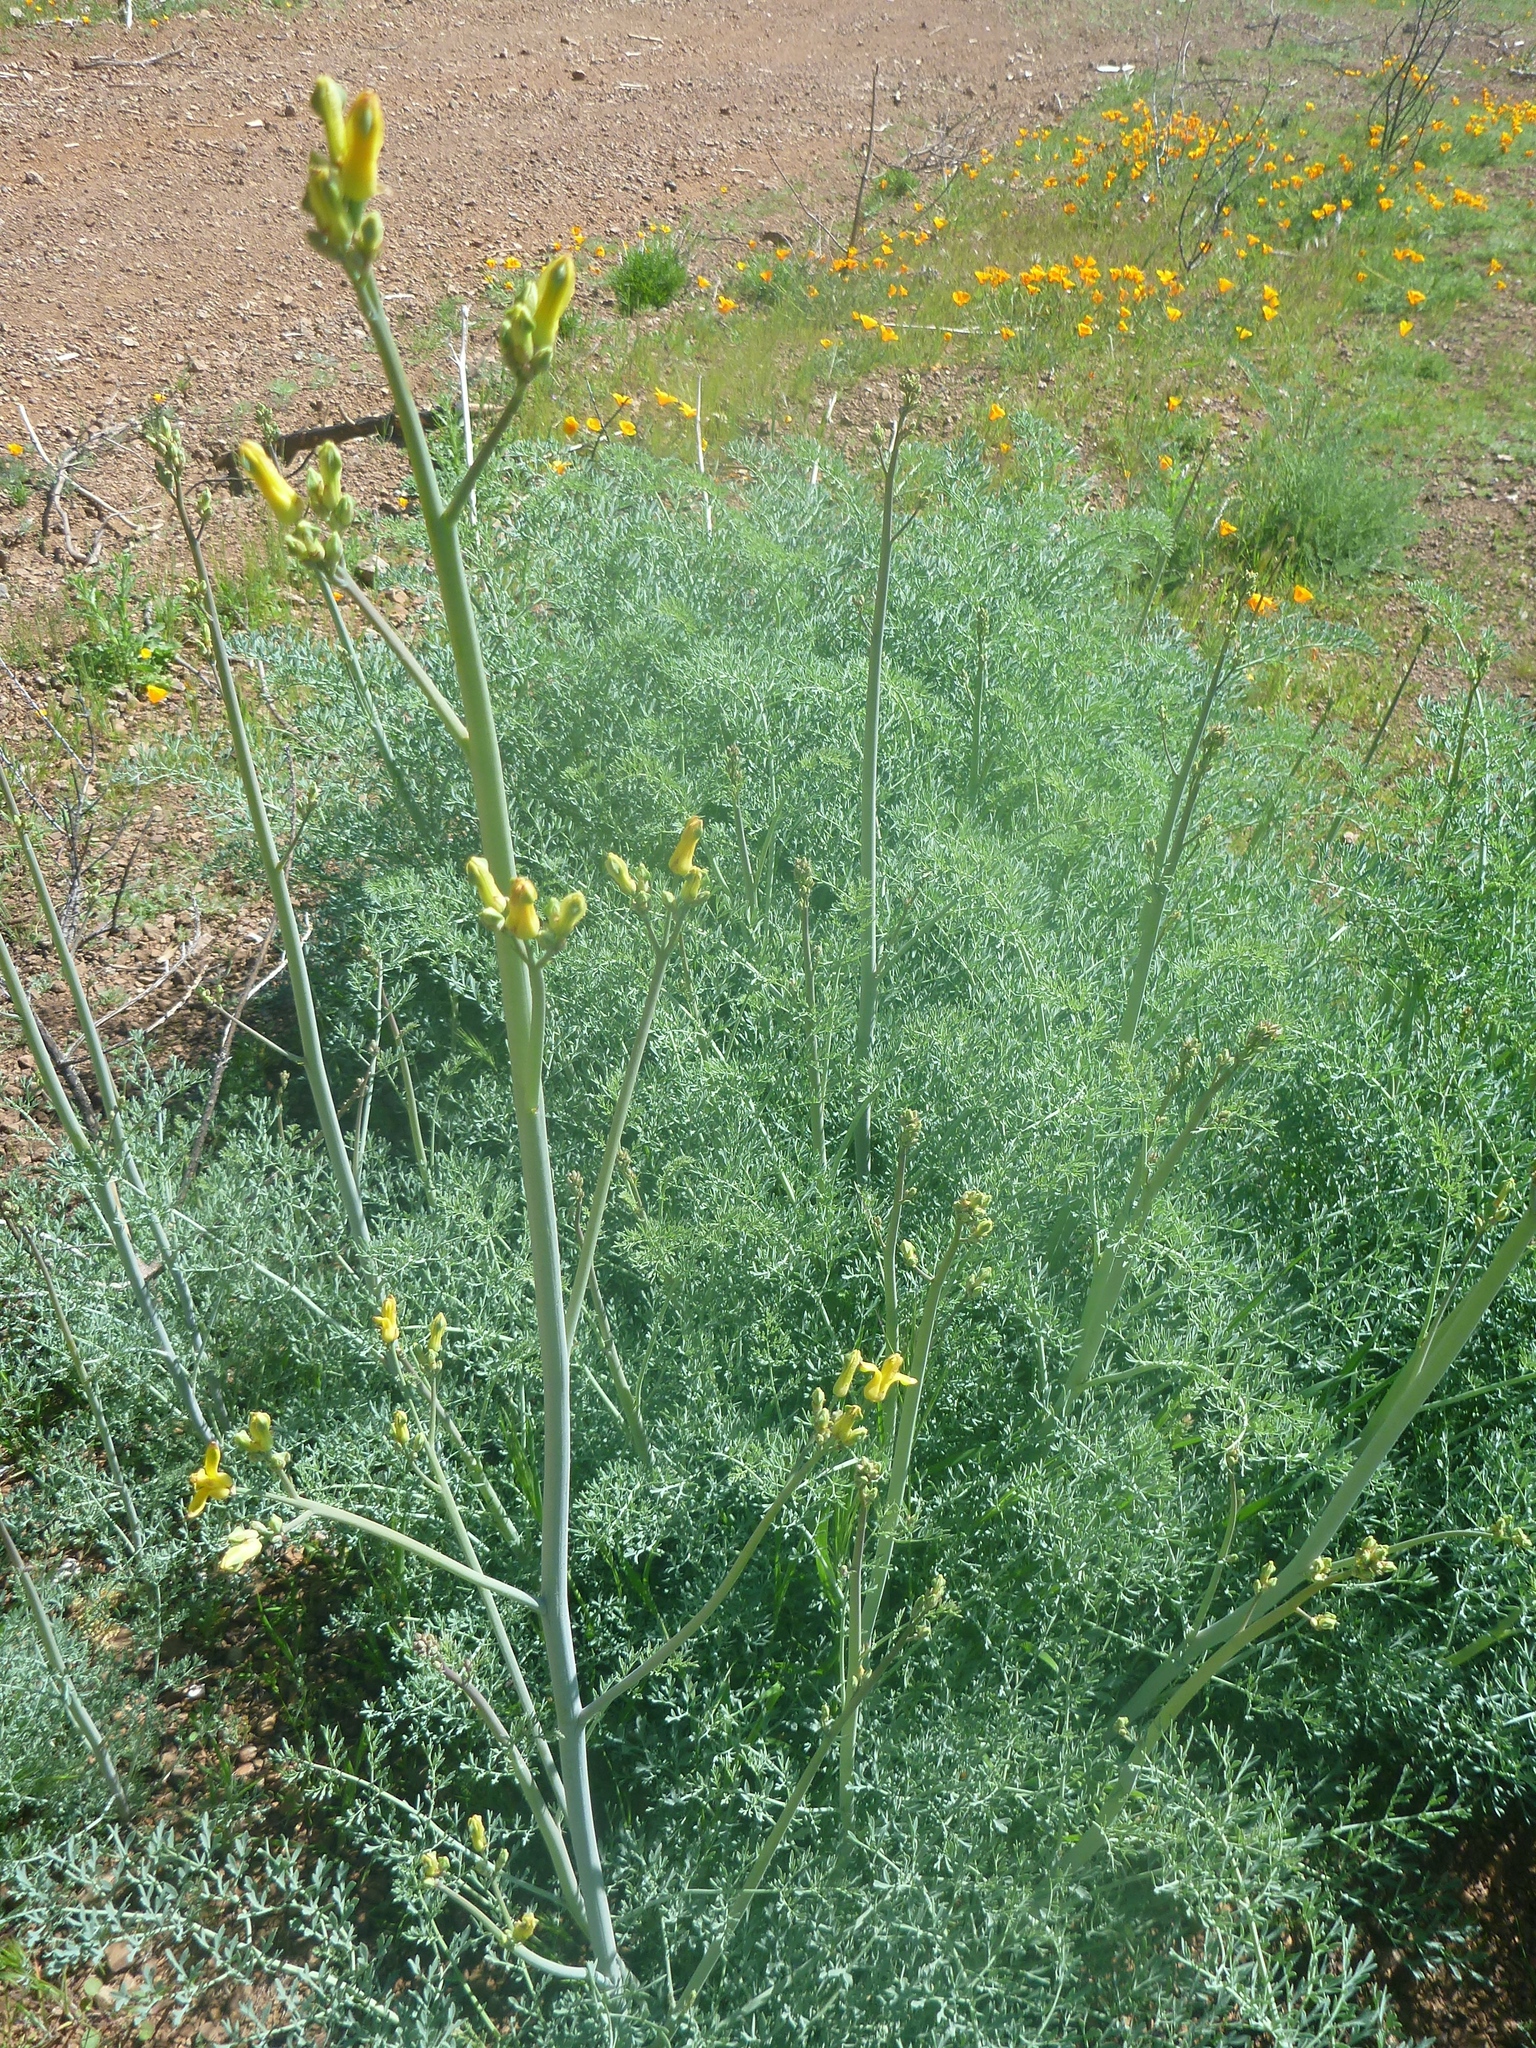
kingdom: Plantae
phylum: Tracheophyta
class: Magnoliopsida
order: Ranunculales
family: Papaveraceae
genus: Ehrendorferia
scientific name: Ehrendorferia chrysantha
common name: Golden eardrops
